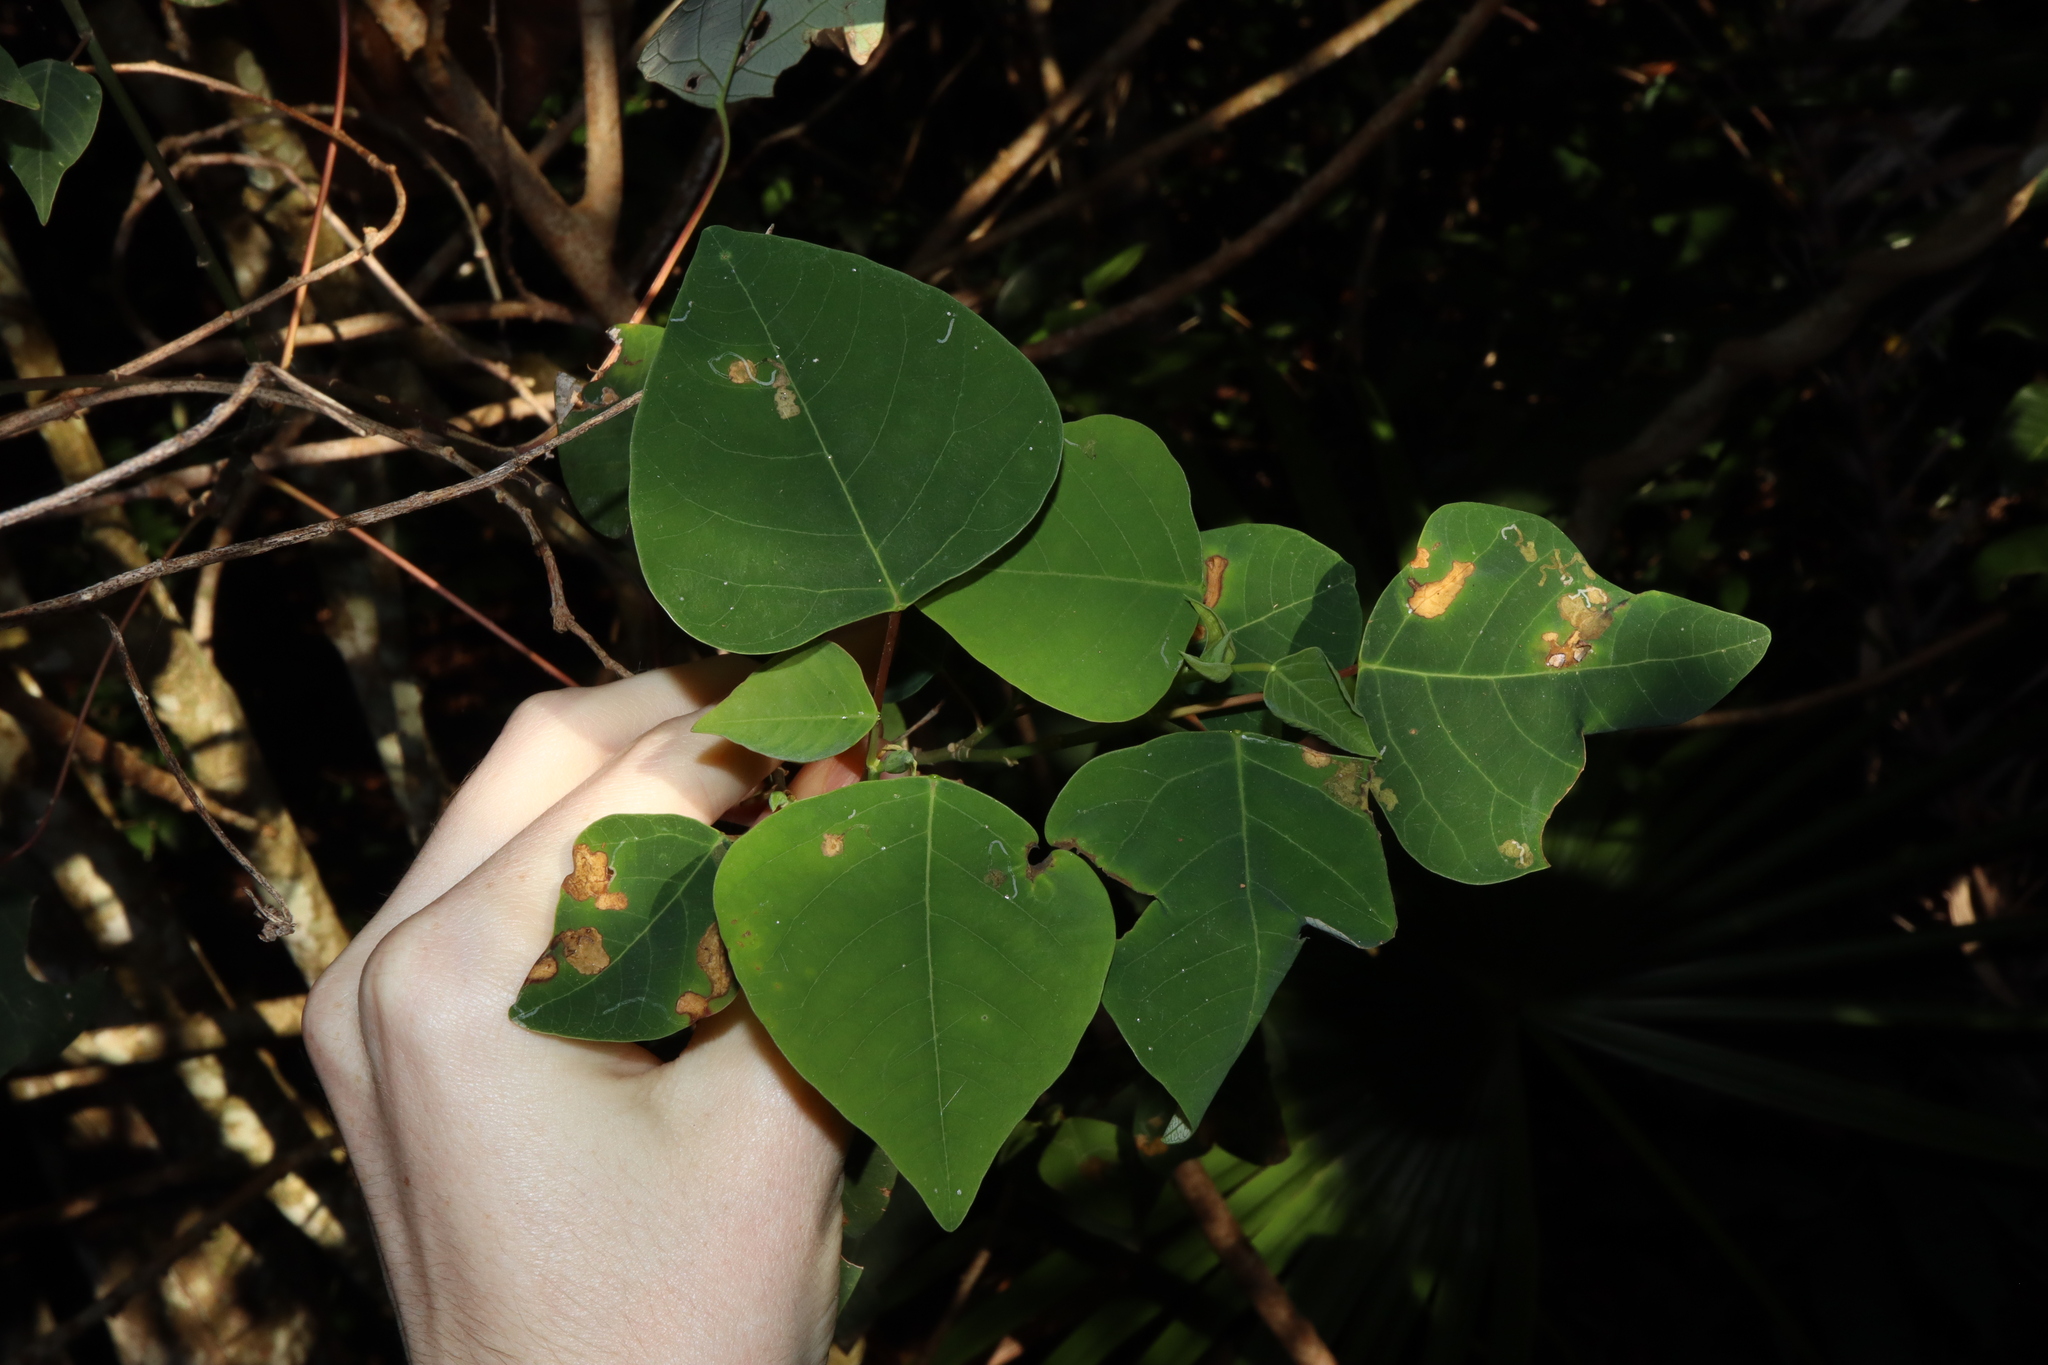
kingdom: Plantae
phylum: Tracheophyta
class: Magnoliopsida
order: Malpighiales
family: Euphorbiaceae
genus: Homalanthus
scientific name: Homalanthus populifolius
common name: Queensland poplar
